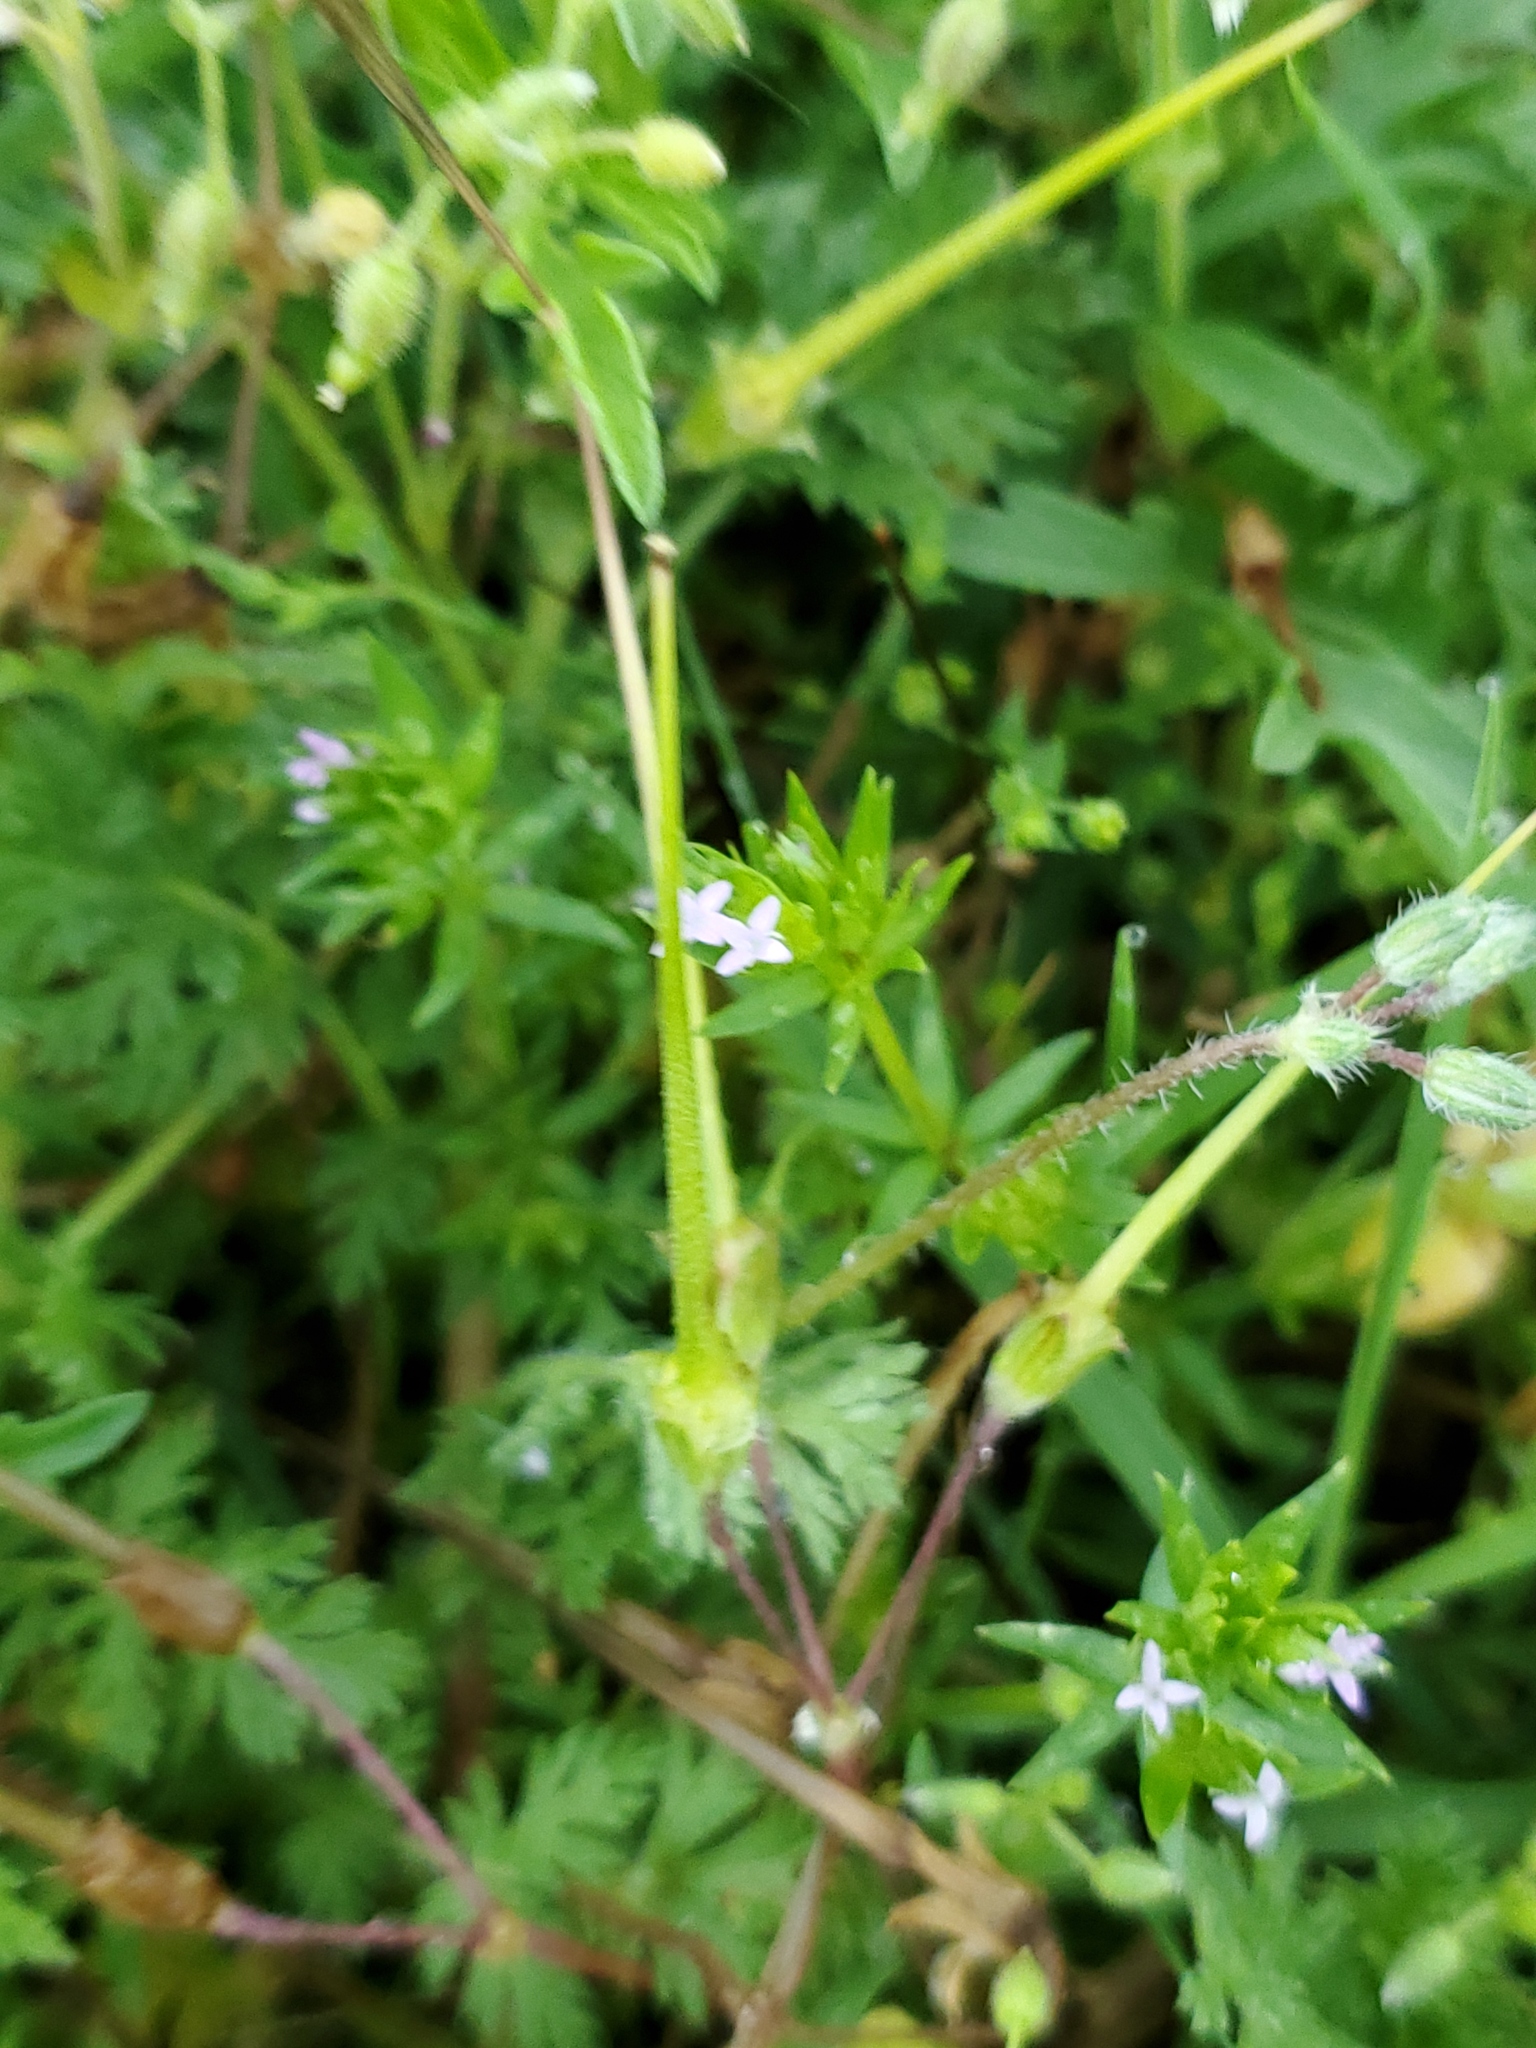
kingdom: Plantae
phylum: Tracheophyta
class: Magnoliopsida
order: Gentianales
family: Rubiaceae
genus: Sherardia
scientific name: Sherardia arvensis
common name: Field madder
